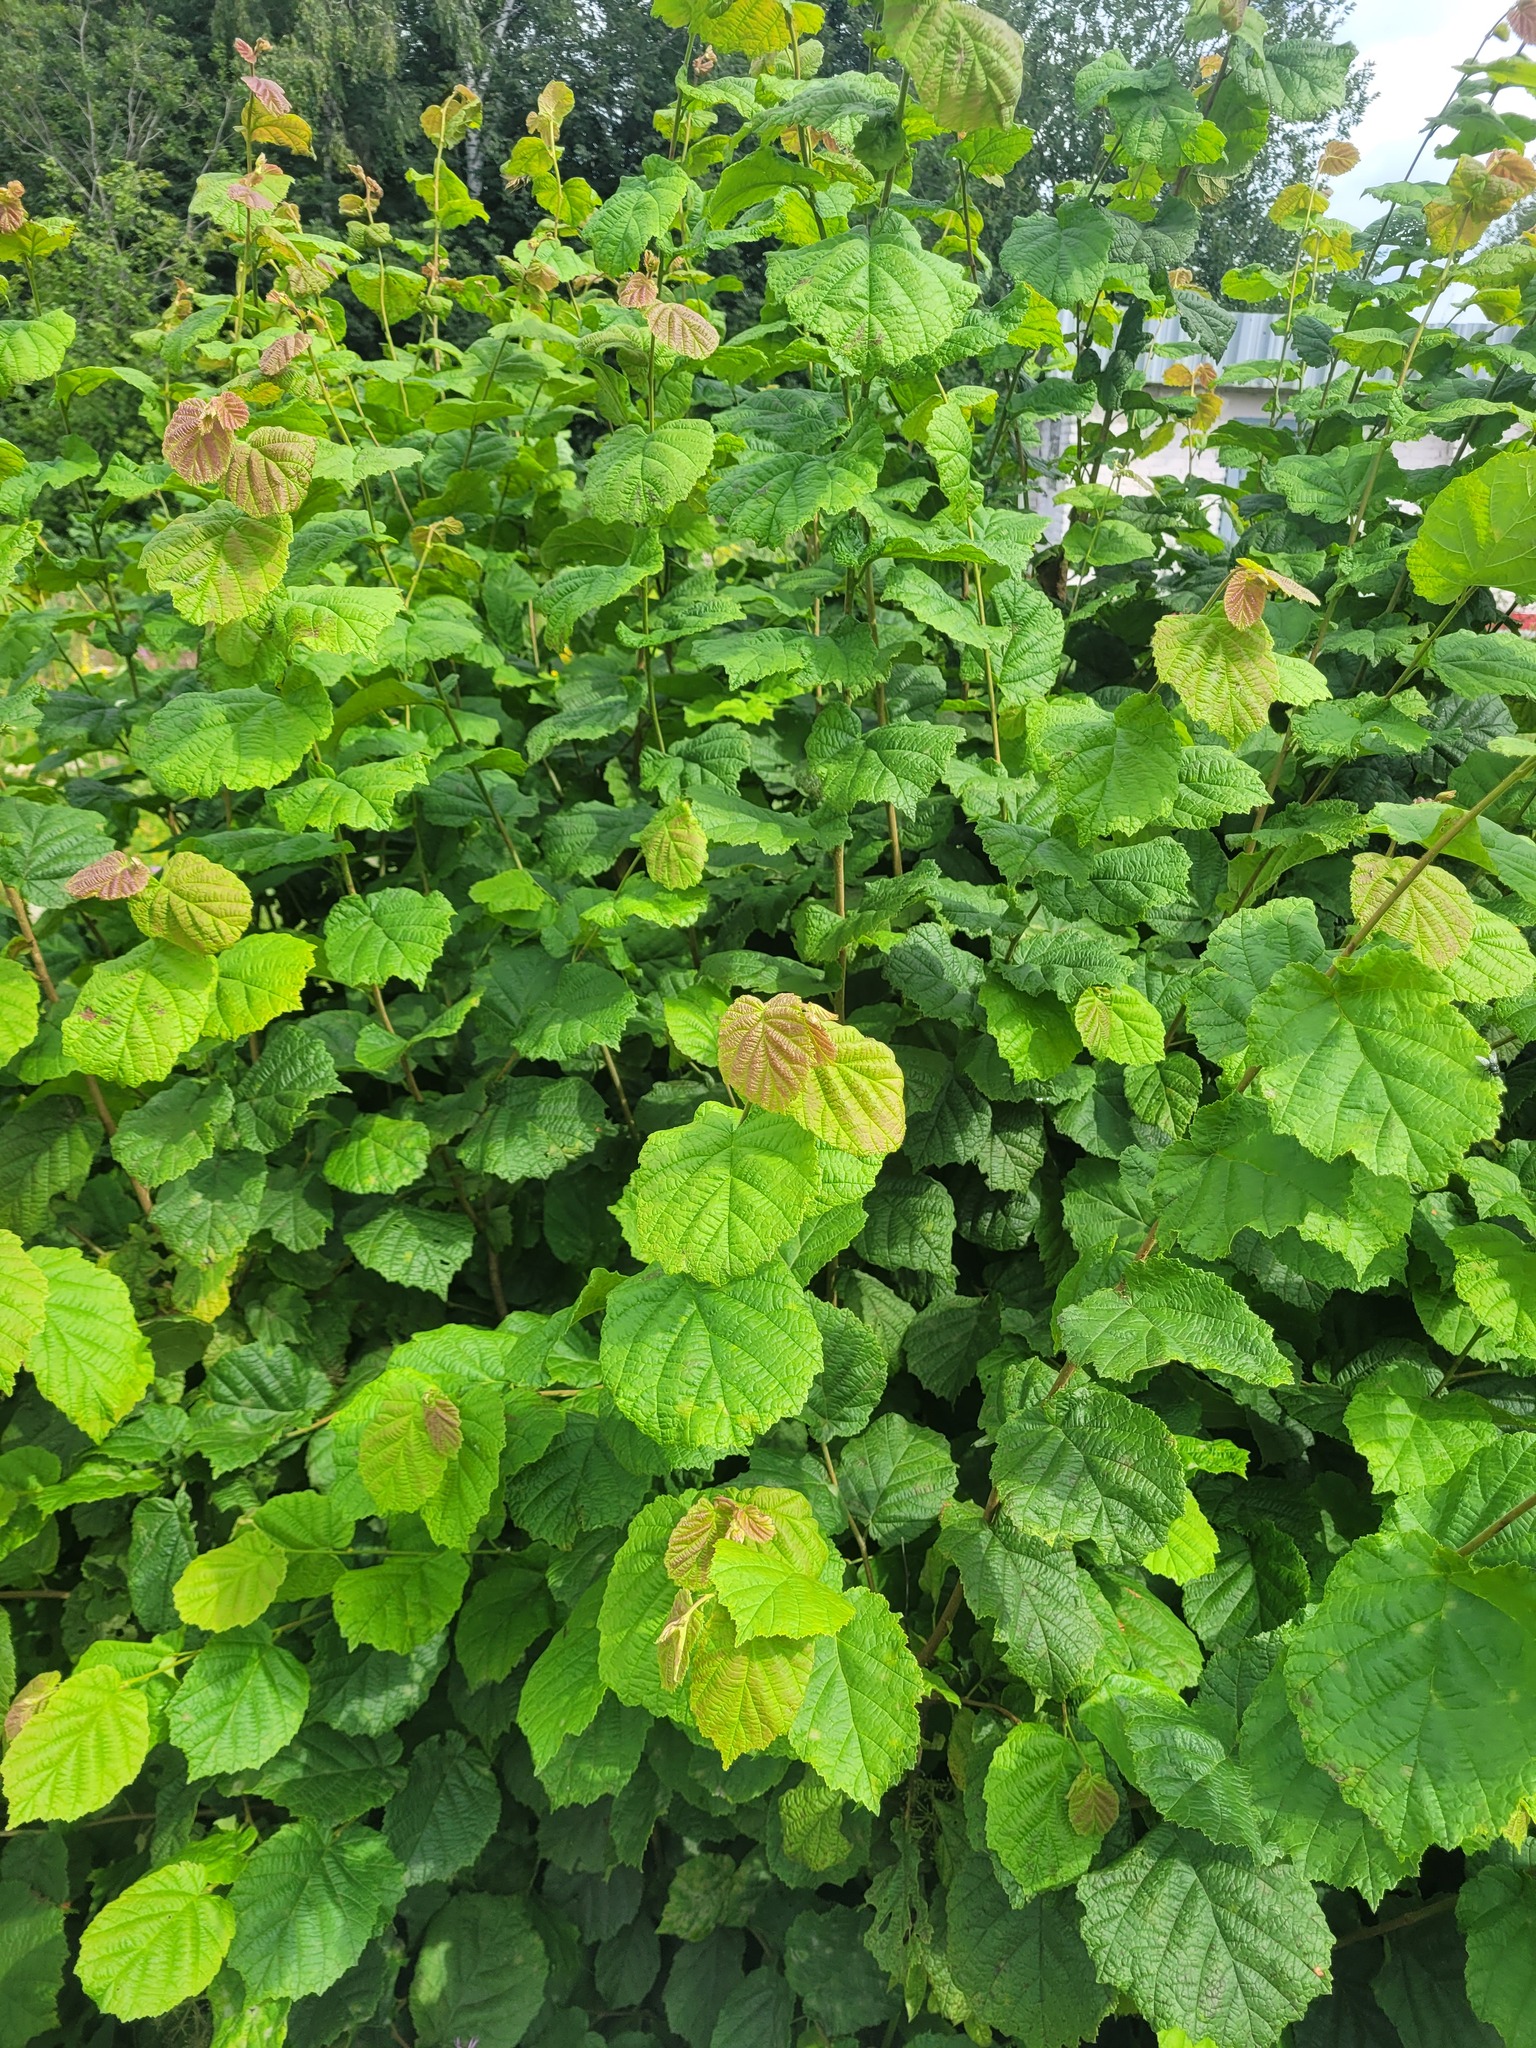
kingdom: Plantae
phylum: Tracheophyta
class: Magnoliopsida
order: Fagales
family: Betulaceae
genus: Corylus
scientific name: Corylus avellana
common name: European hazel
